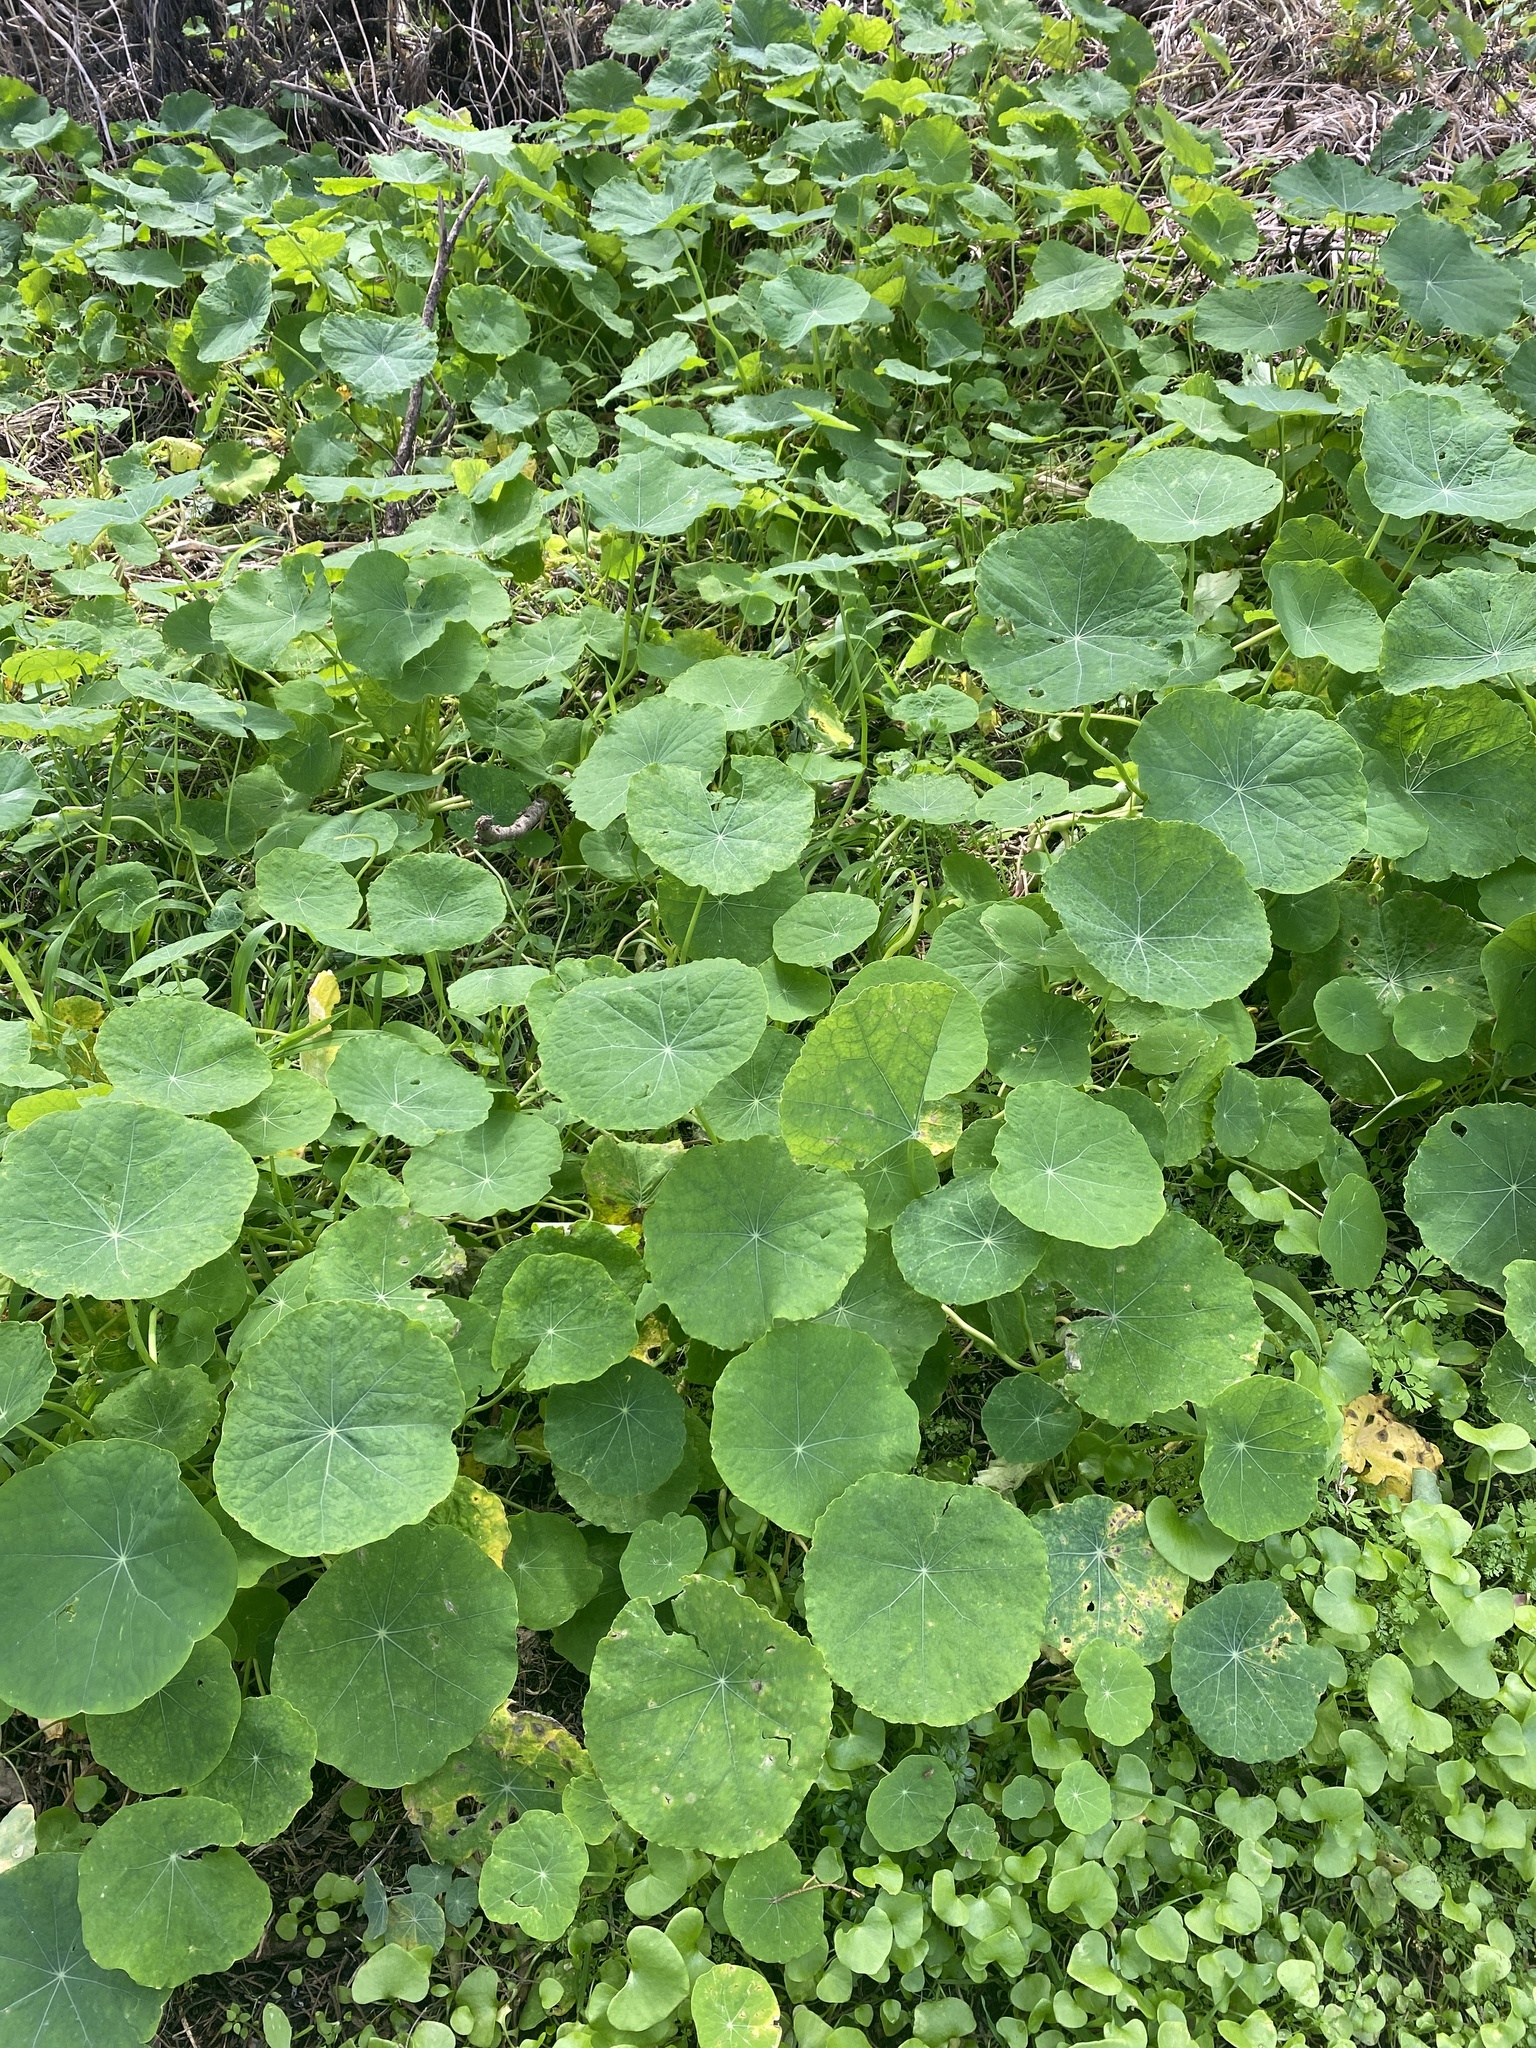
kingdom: Plantae
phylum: Tracheophyta
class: Magnoliopsida
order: Brassicales
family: Tropaeolaceae
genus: Tropaeolum
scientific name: Tropaeolum majus
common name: Nasturtium
